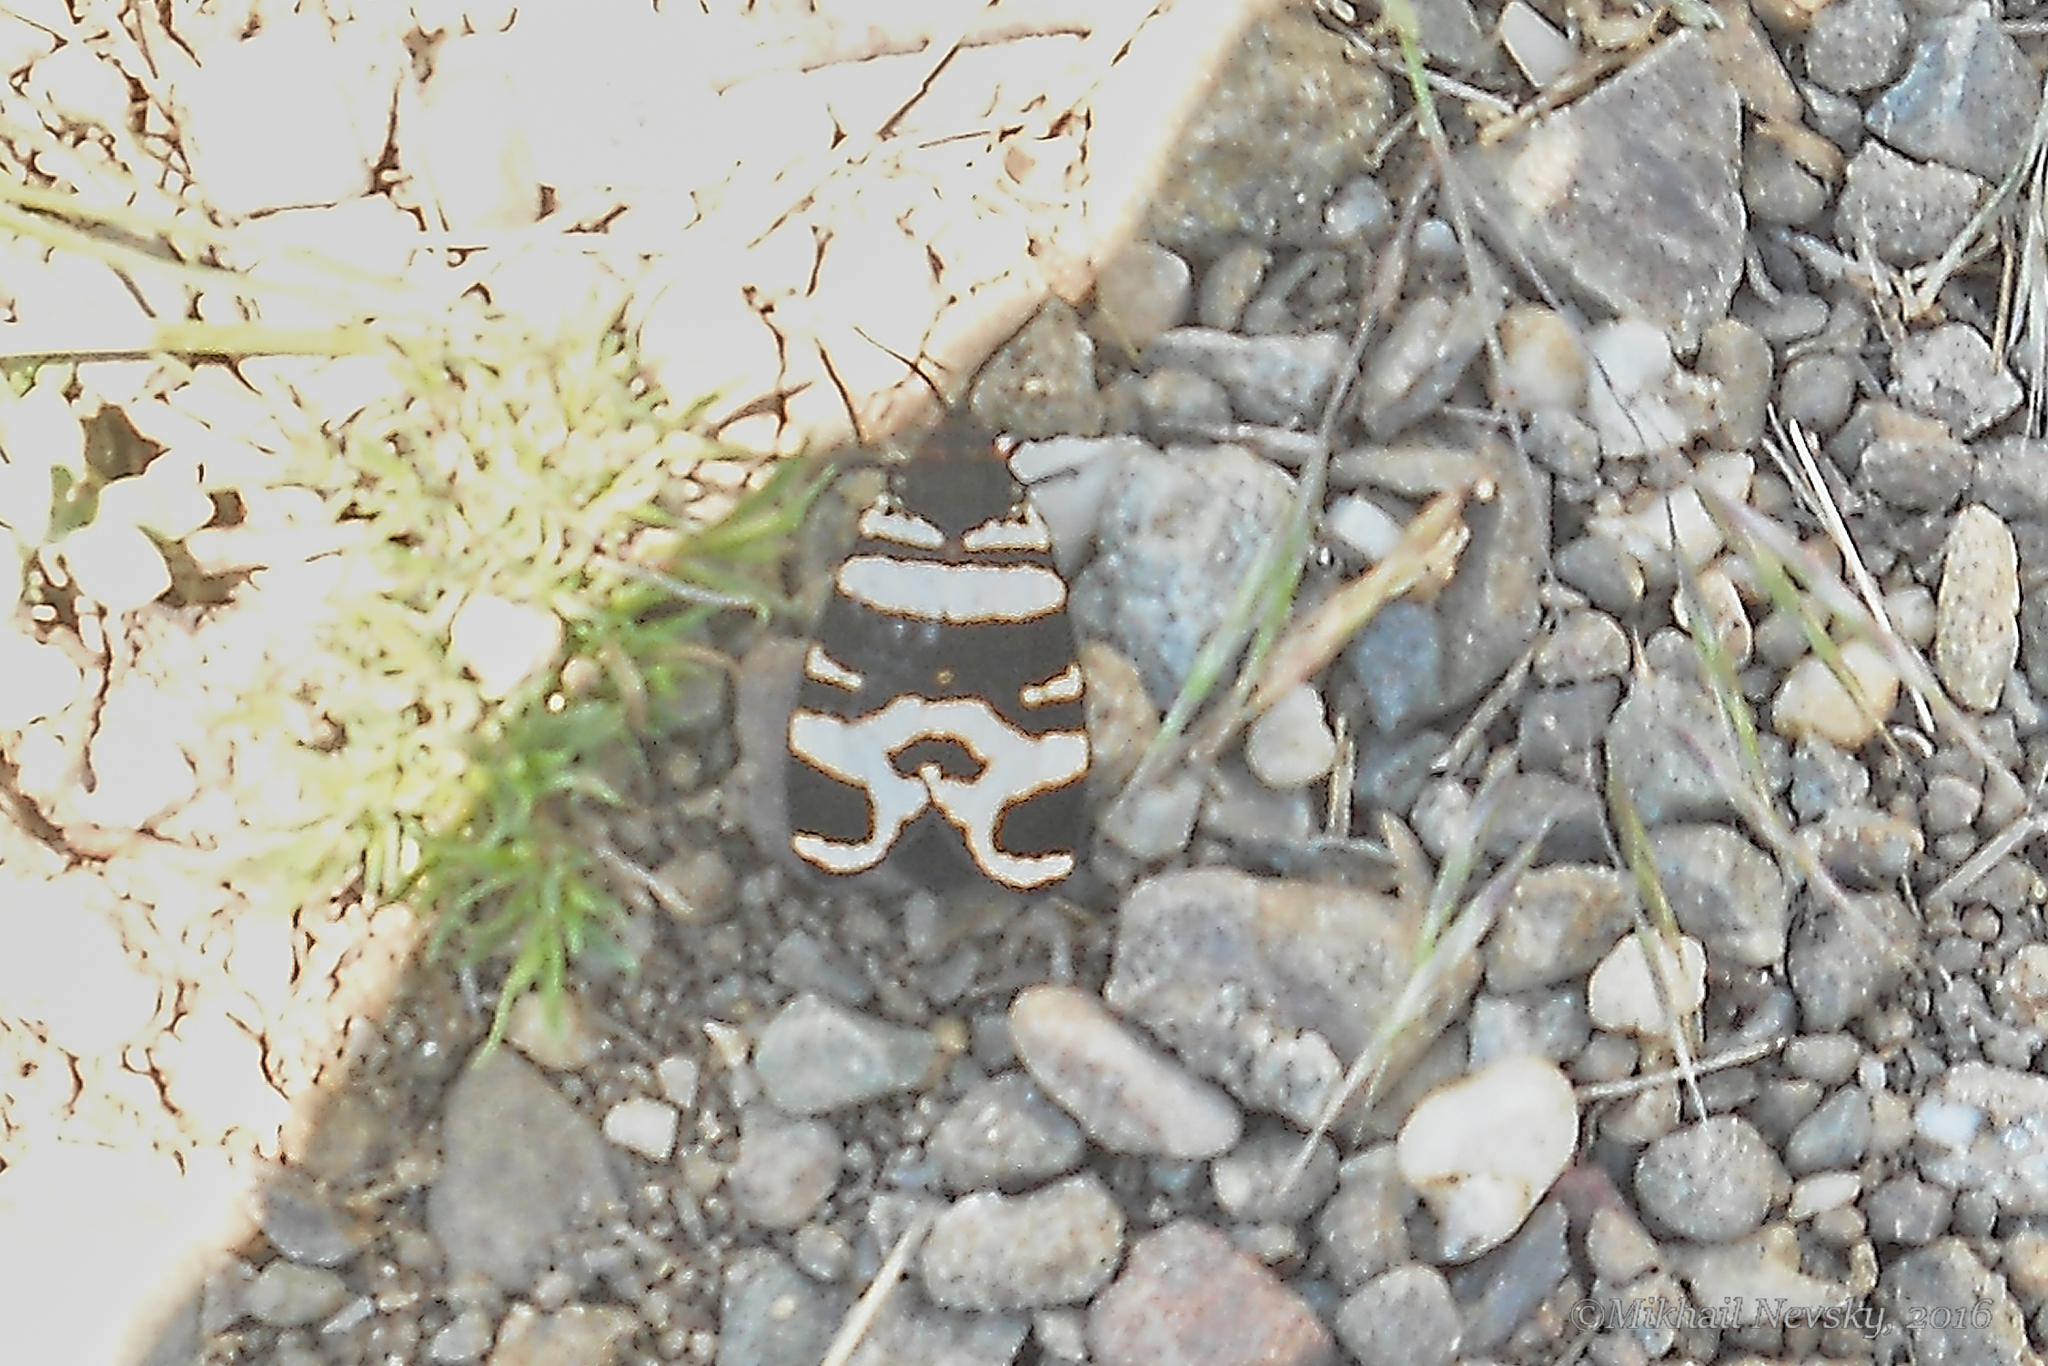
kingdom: Animalia
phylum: Arthropoda
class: Insecta
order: Lepidoptera
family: Erebidae
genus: Eucharia
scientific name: Eucharia festiva
